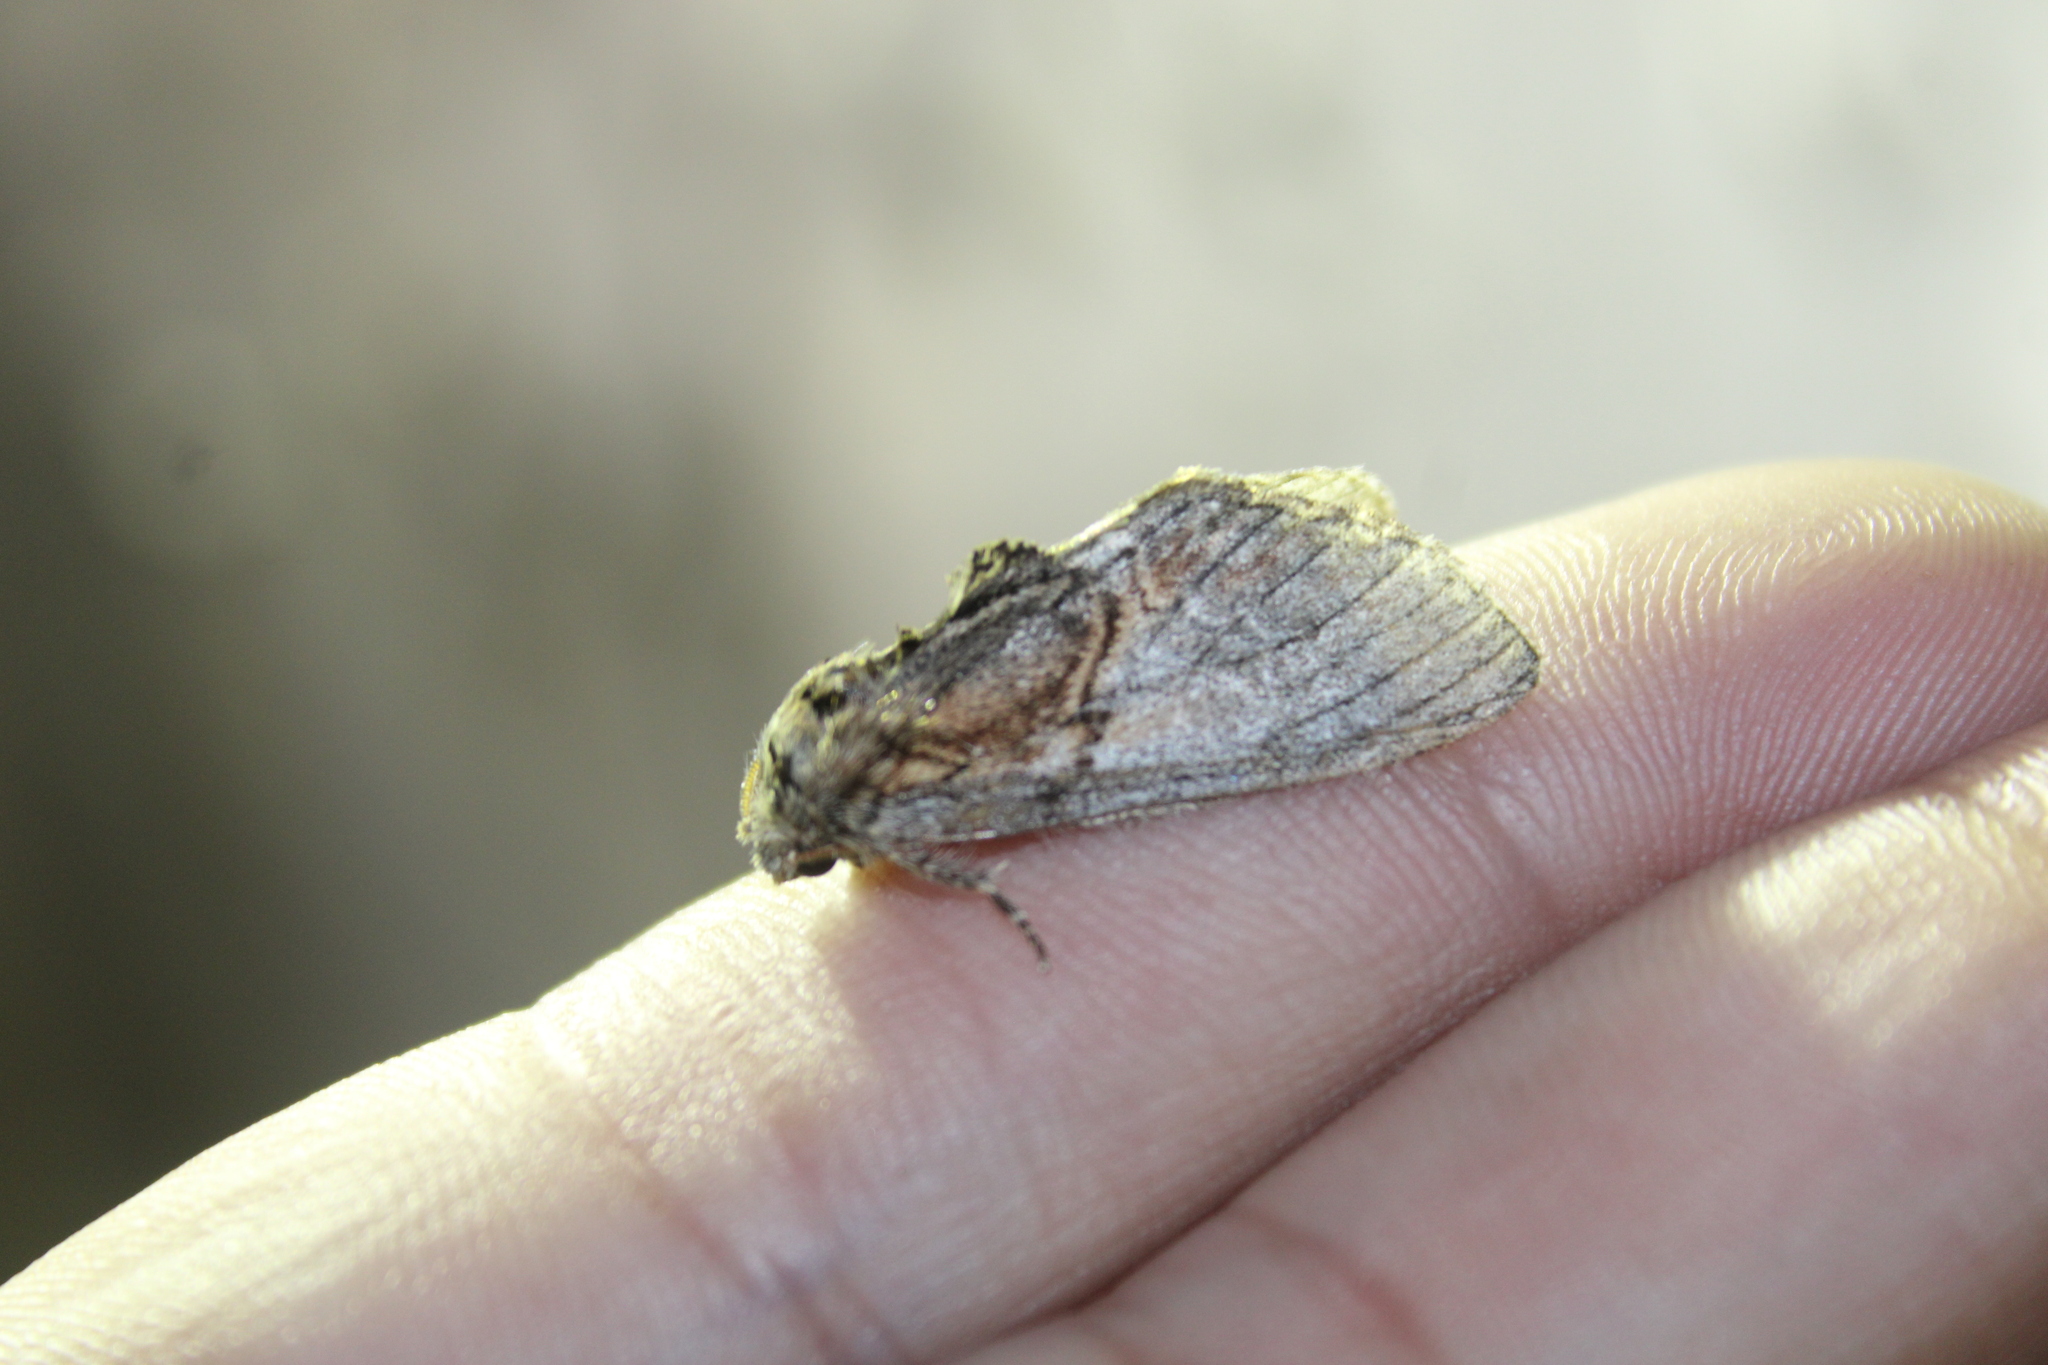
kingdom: Animalia
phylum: Arthropoda
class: Insecta
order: Lepidoptera
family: Notodontidae
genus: Peridea
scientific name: Peridea basitriens
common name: Oval-based prominent
